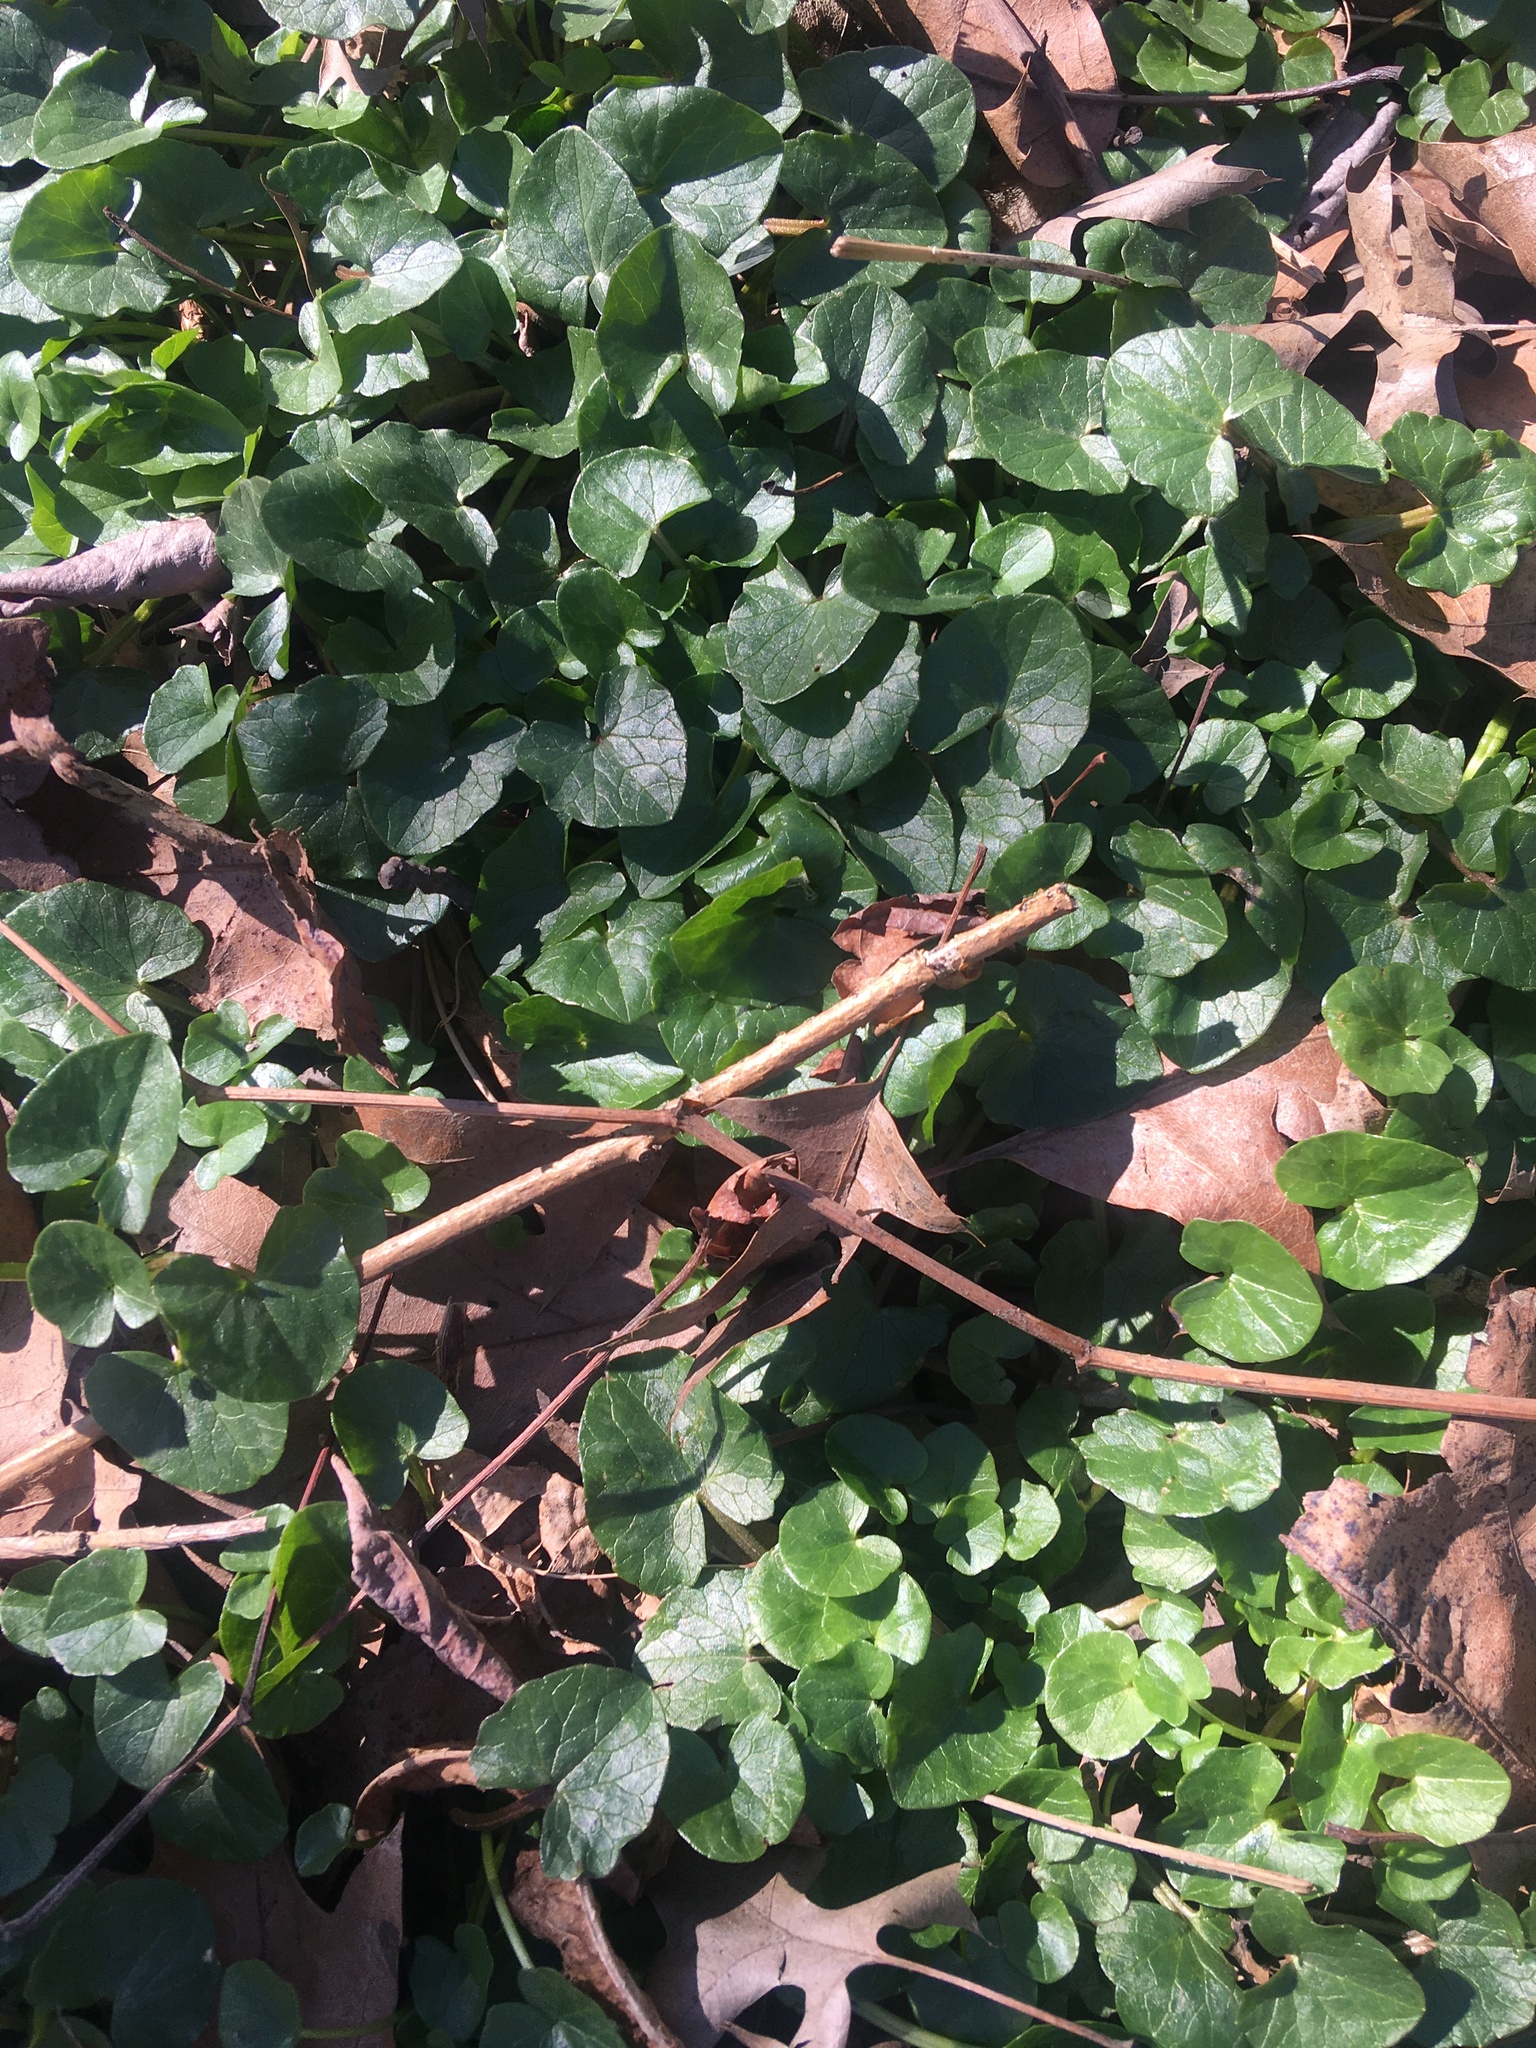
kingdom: Plantae
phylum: Tracheophyta
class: Magnoliopsida
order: Ranunculales
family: Ranunculaceae
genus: Ficaria
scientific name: Ficaria verna
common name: Lesser celandine
